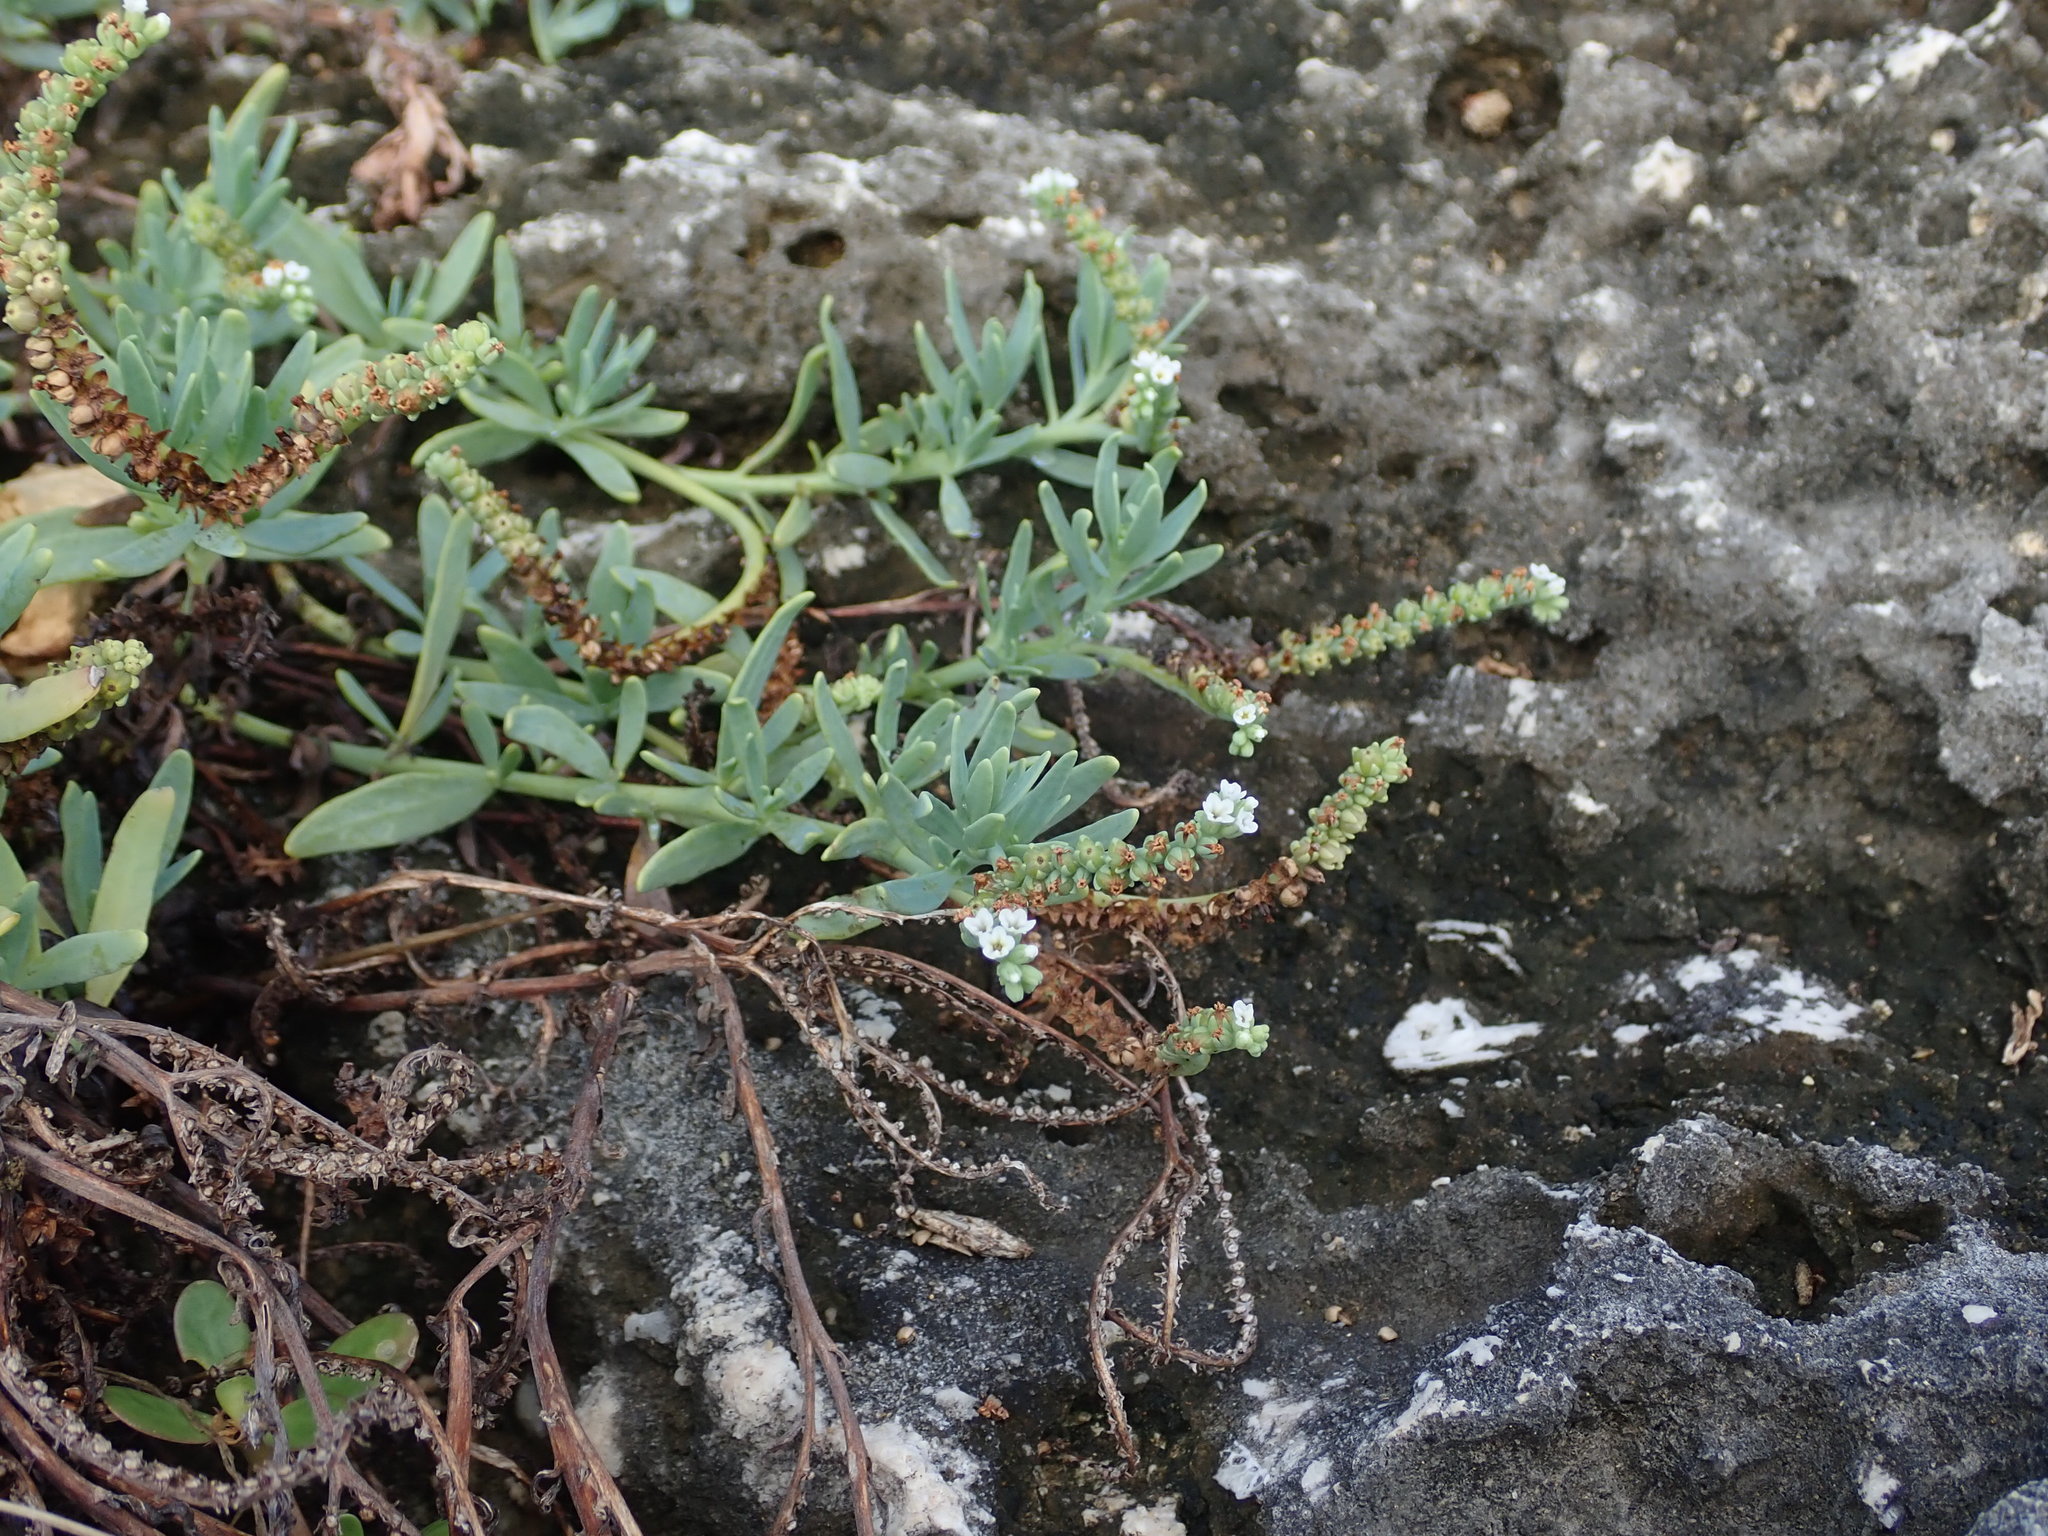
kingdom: Plantae
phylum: Tracheophyta
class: Magnoliopsida
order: Boraginales
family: Heliotropiaceae
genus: Heliotropium
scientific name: Heliotropium curassavicum
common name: Seaside heliotrope
